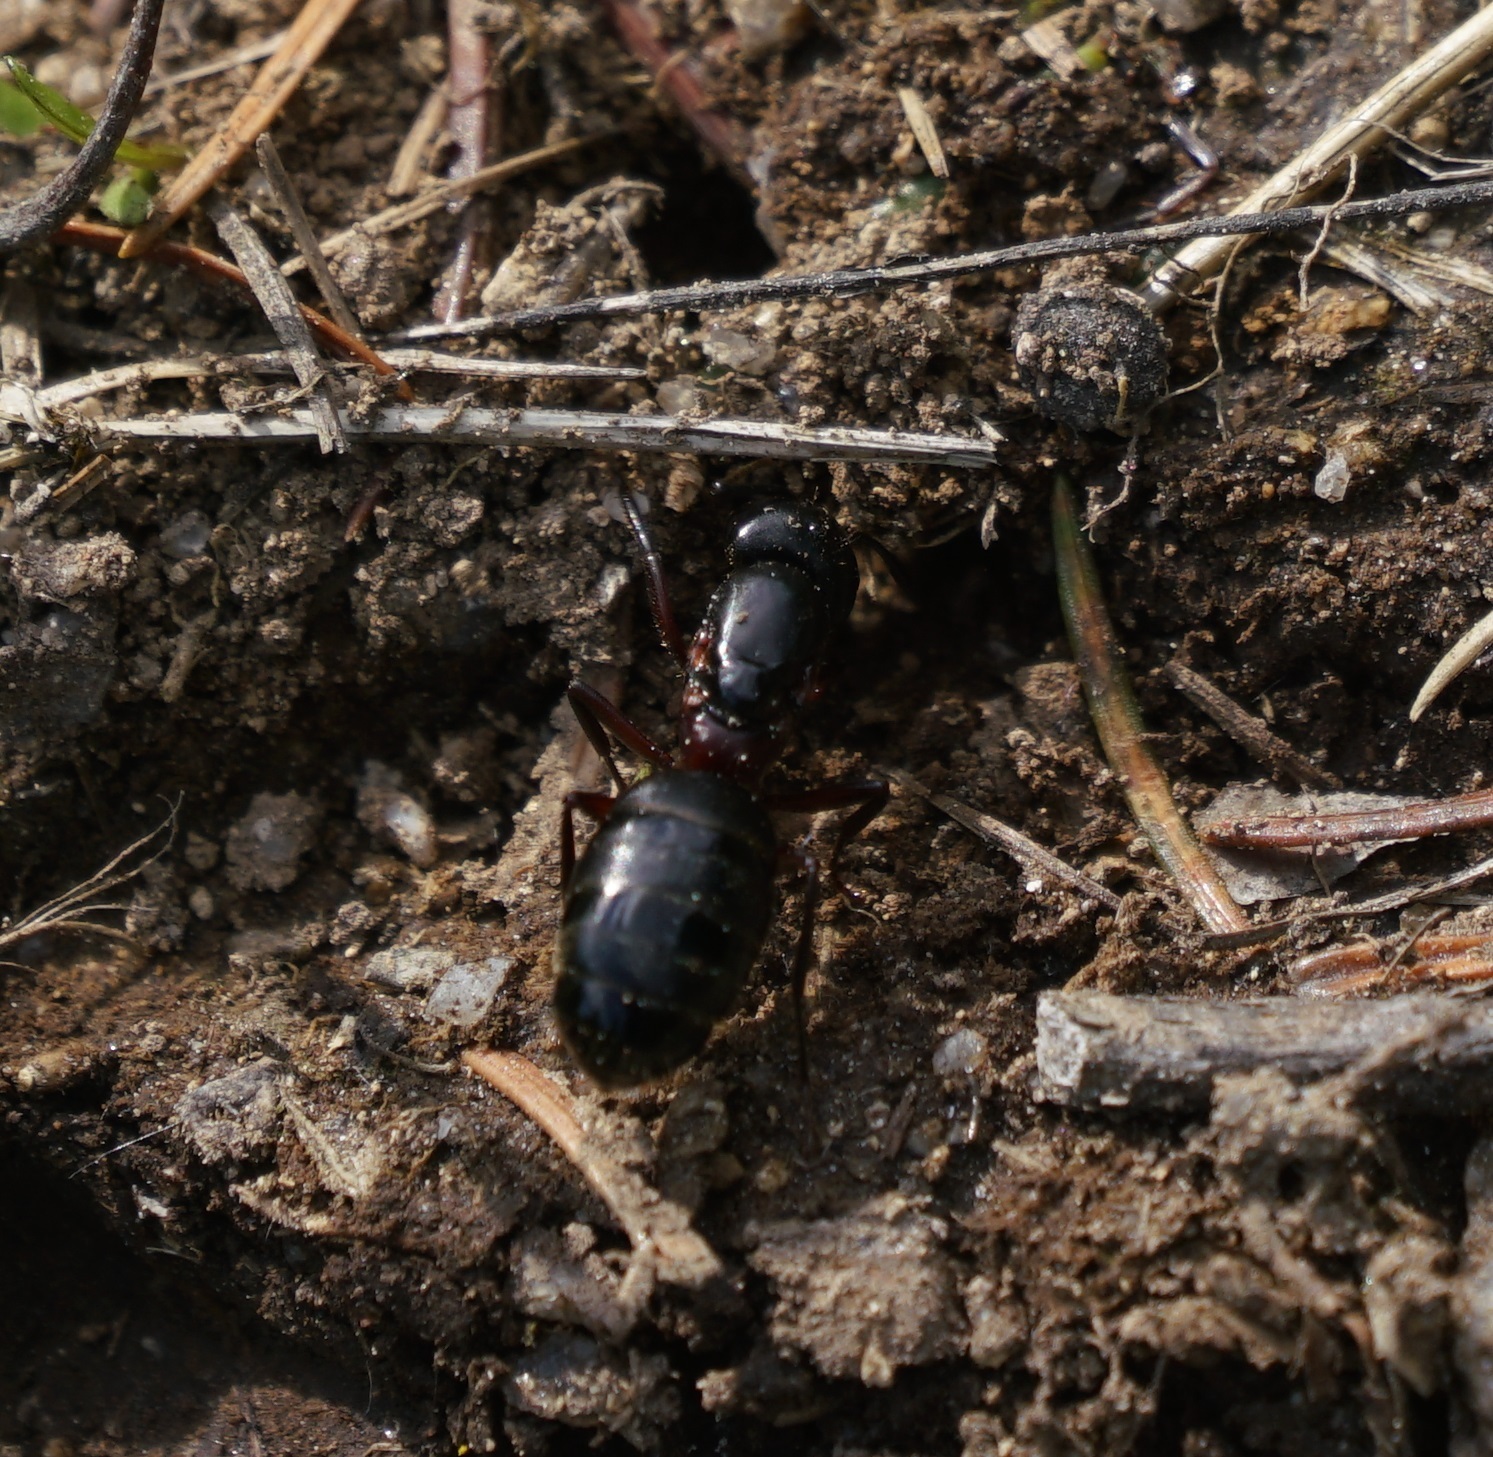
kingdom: Animalia
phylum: Arthropoda
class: Insecta
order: Hymenoptera
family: Formicidae
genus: Camponotus
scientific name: Camponotus herculeanus
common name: Hercules ant
